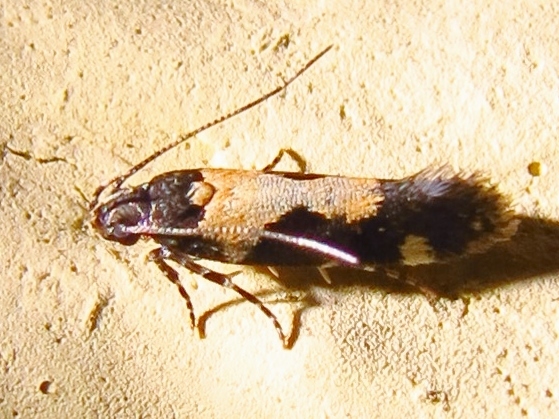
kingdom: Animalia
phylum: Arthropoda
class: Insecta
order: Lepidoptera
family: Gelechiidae
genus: Stegasta
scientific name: Stegasta bosqueella
